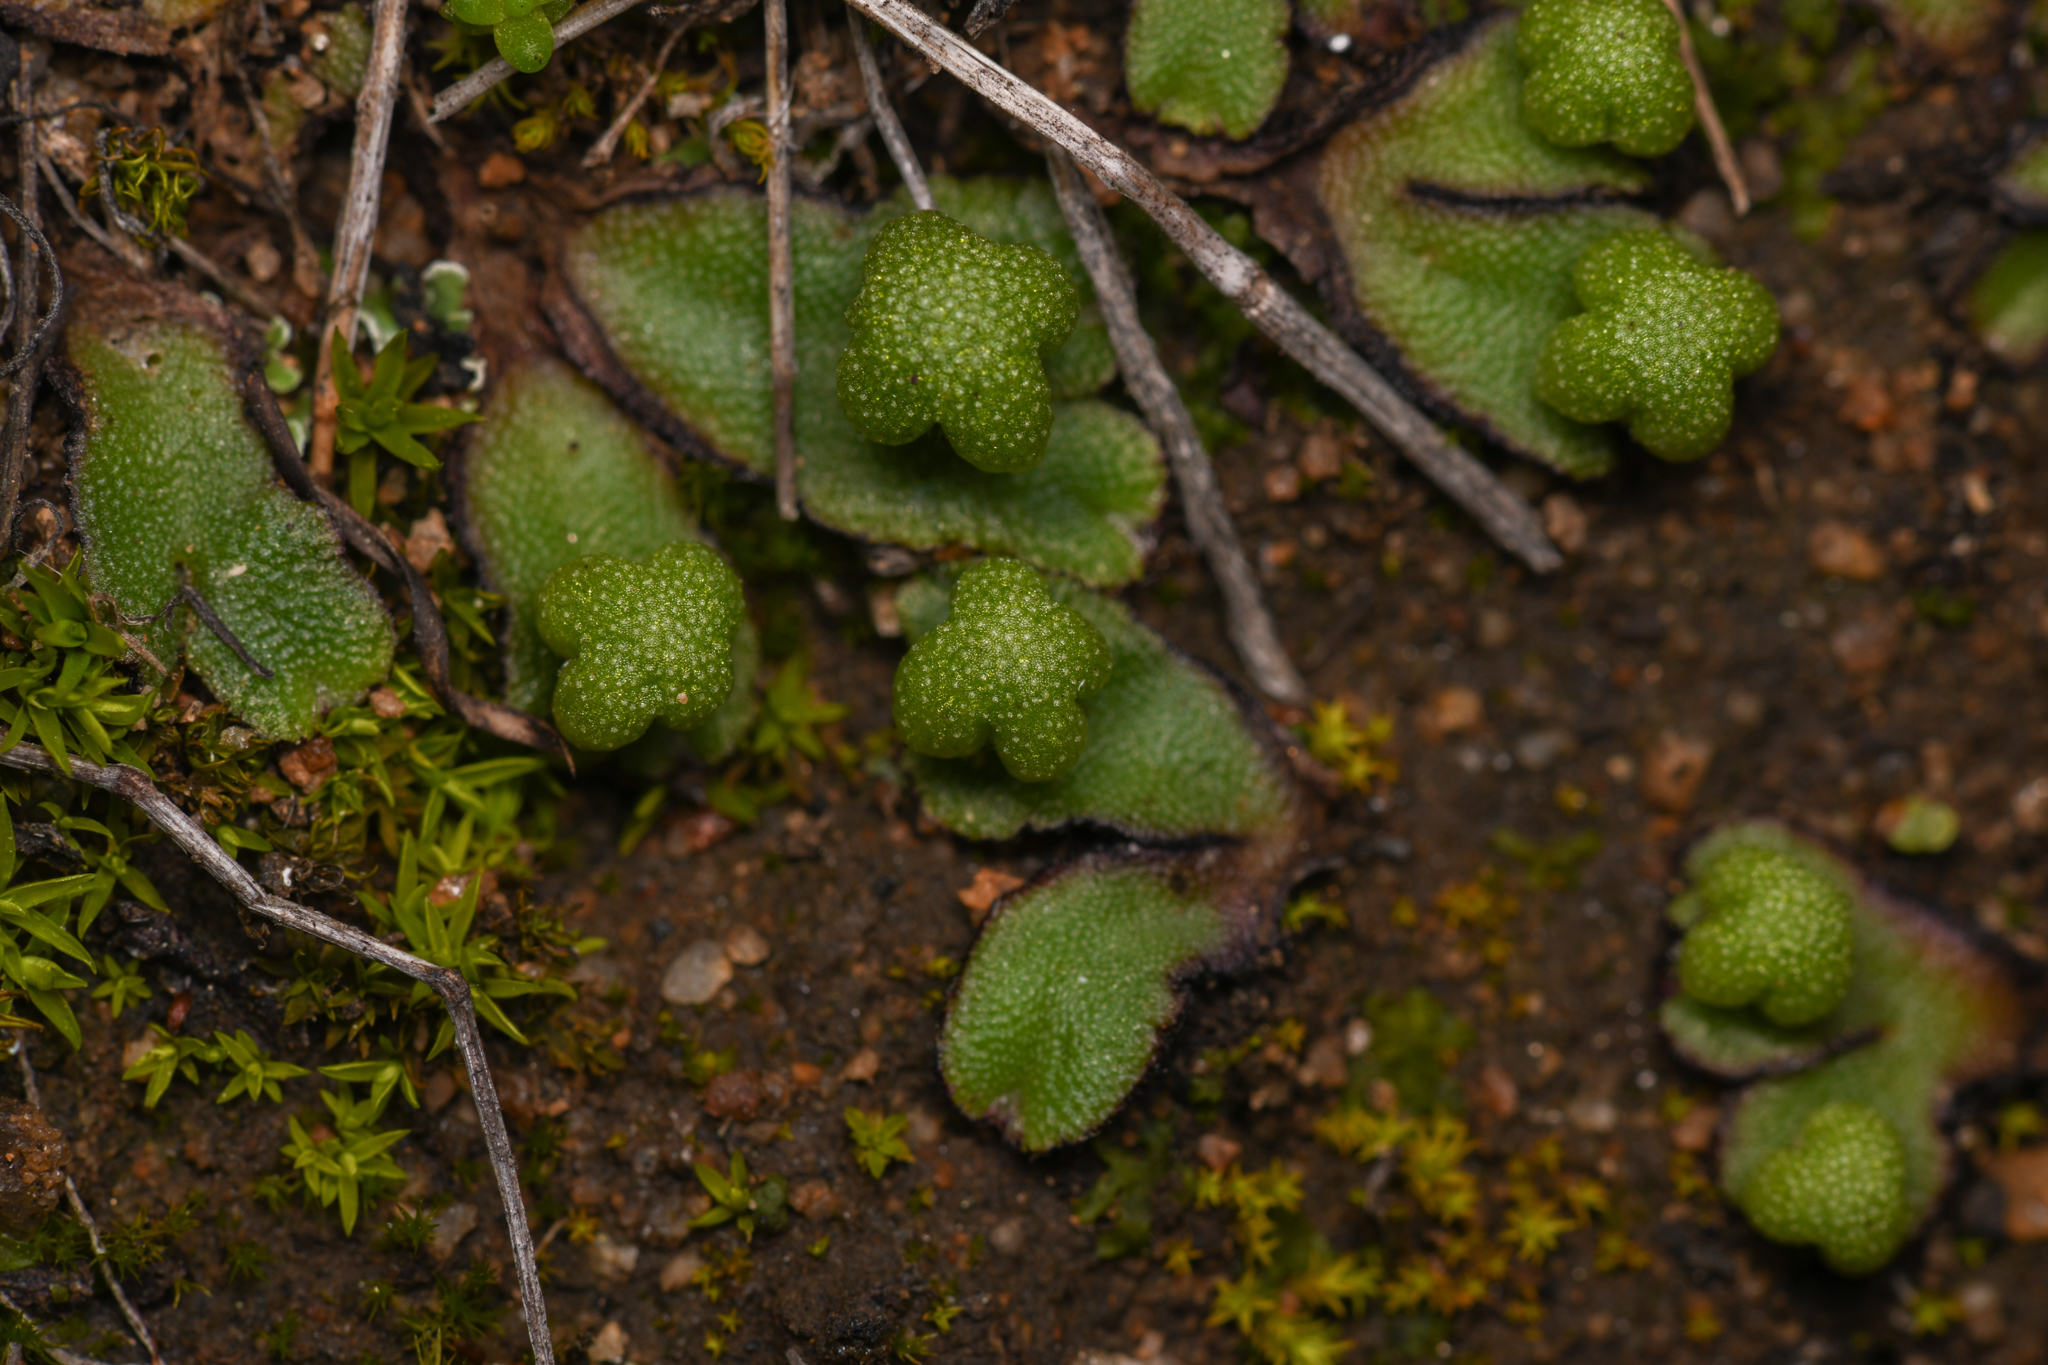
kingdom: Plantae
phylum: Marchantiophyta
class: Marchantiopsida
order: Marchantiales
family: Aytoniaceae
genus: Asterella
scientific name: Asterella californica
